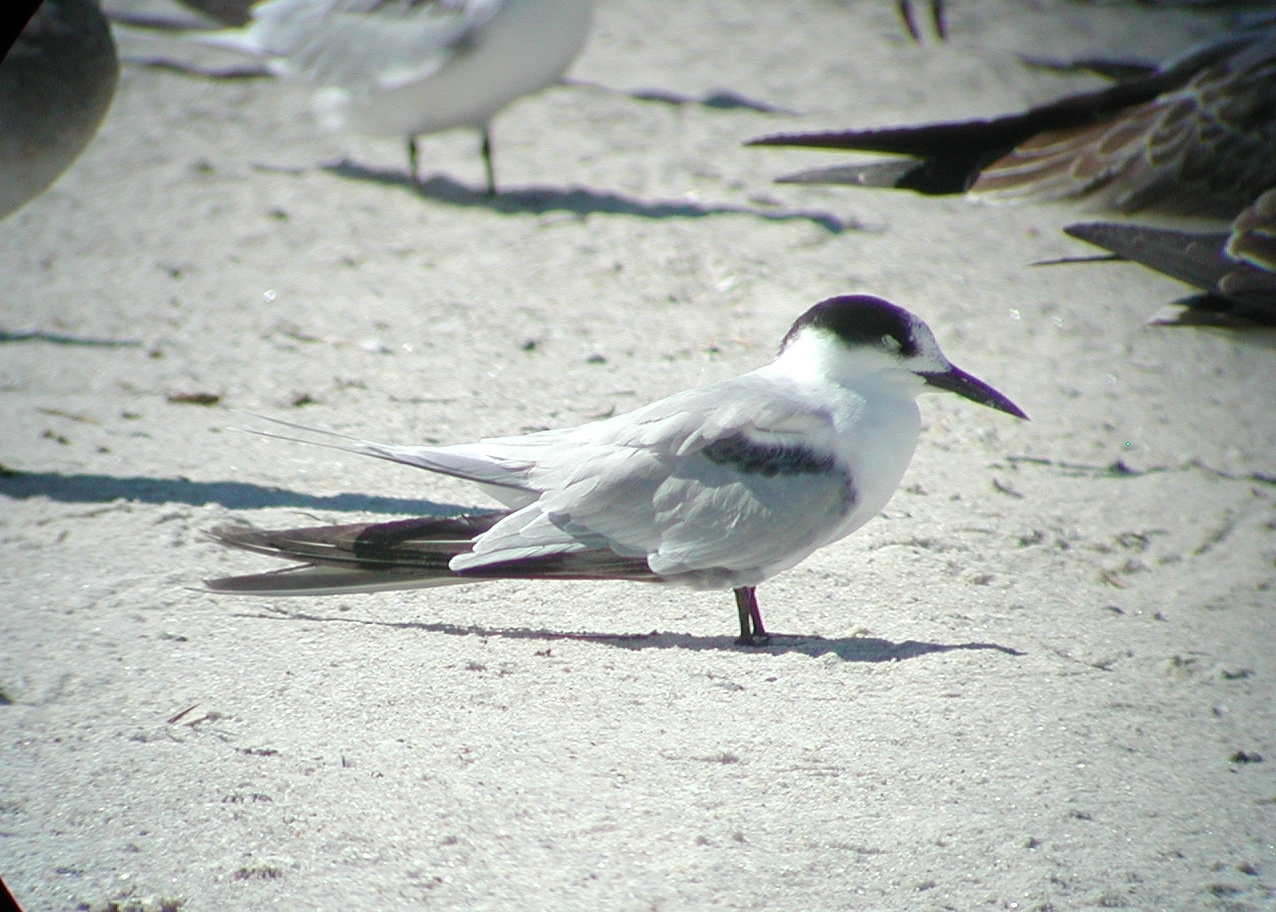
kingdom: Animalia
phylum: Chordata
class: Aves
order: Charadriiformes
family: Laridae
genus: Sterna
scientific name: Sterna hirundo
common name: Common tern
